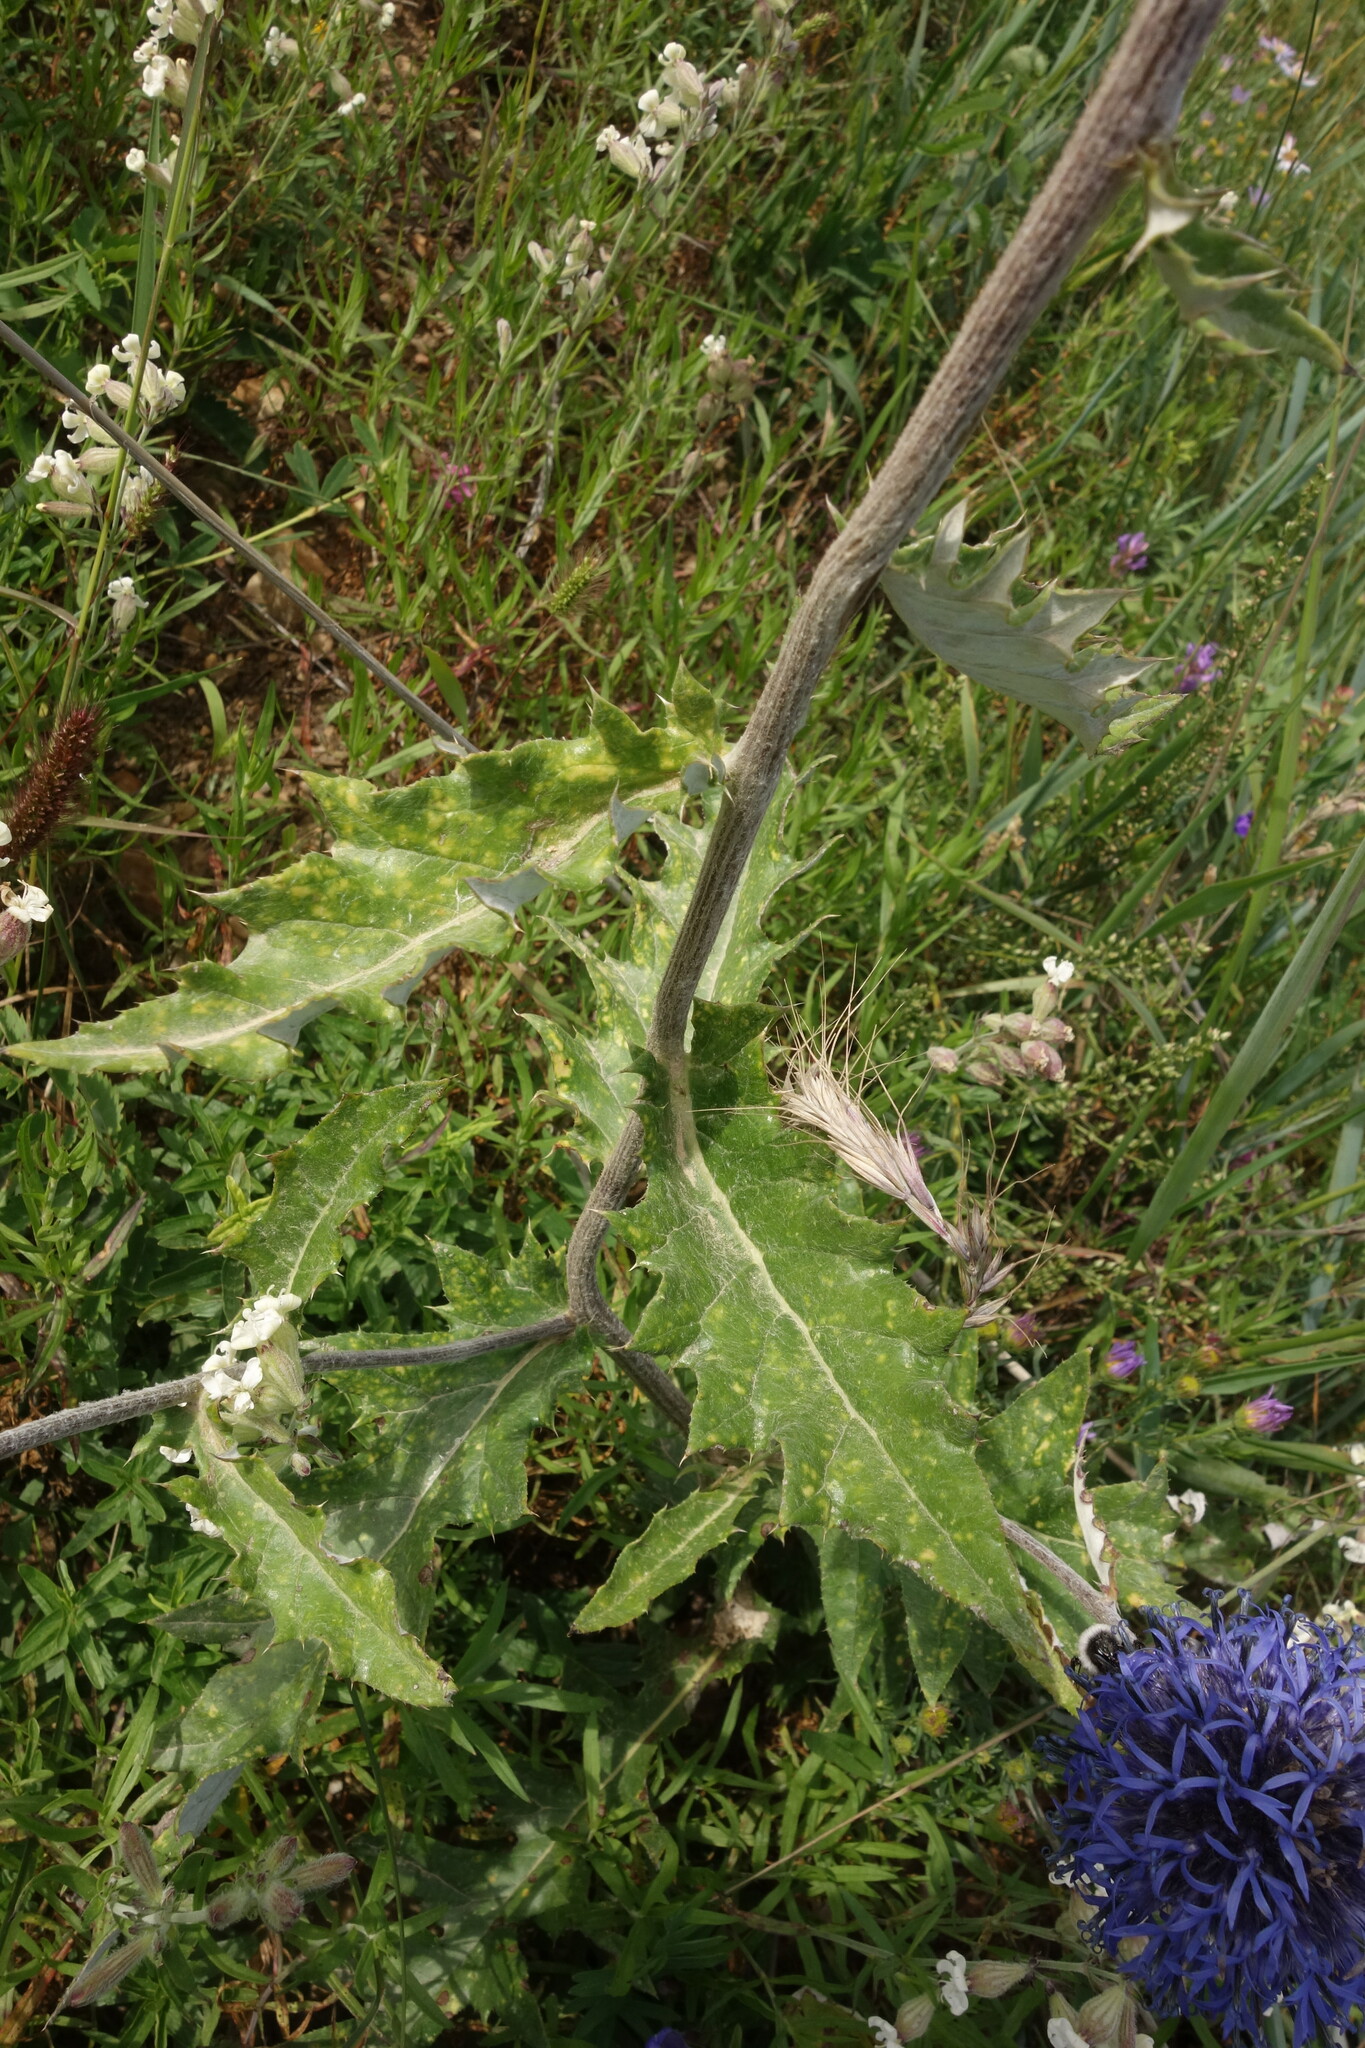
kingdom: Plantae
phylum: Tracheophyta
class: Magnoliopsida
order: Asterales
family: Asteraceae
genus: Echinops
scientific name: Echinops davuricus
